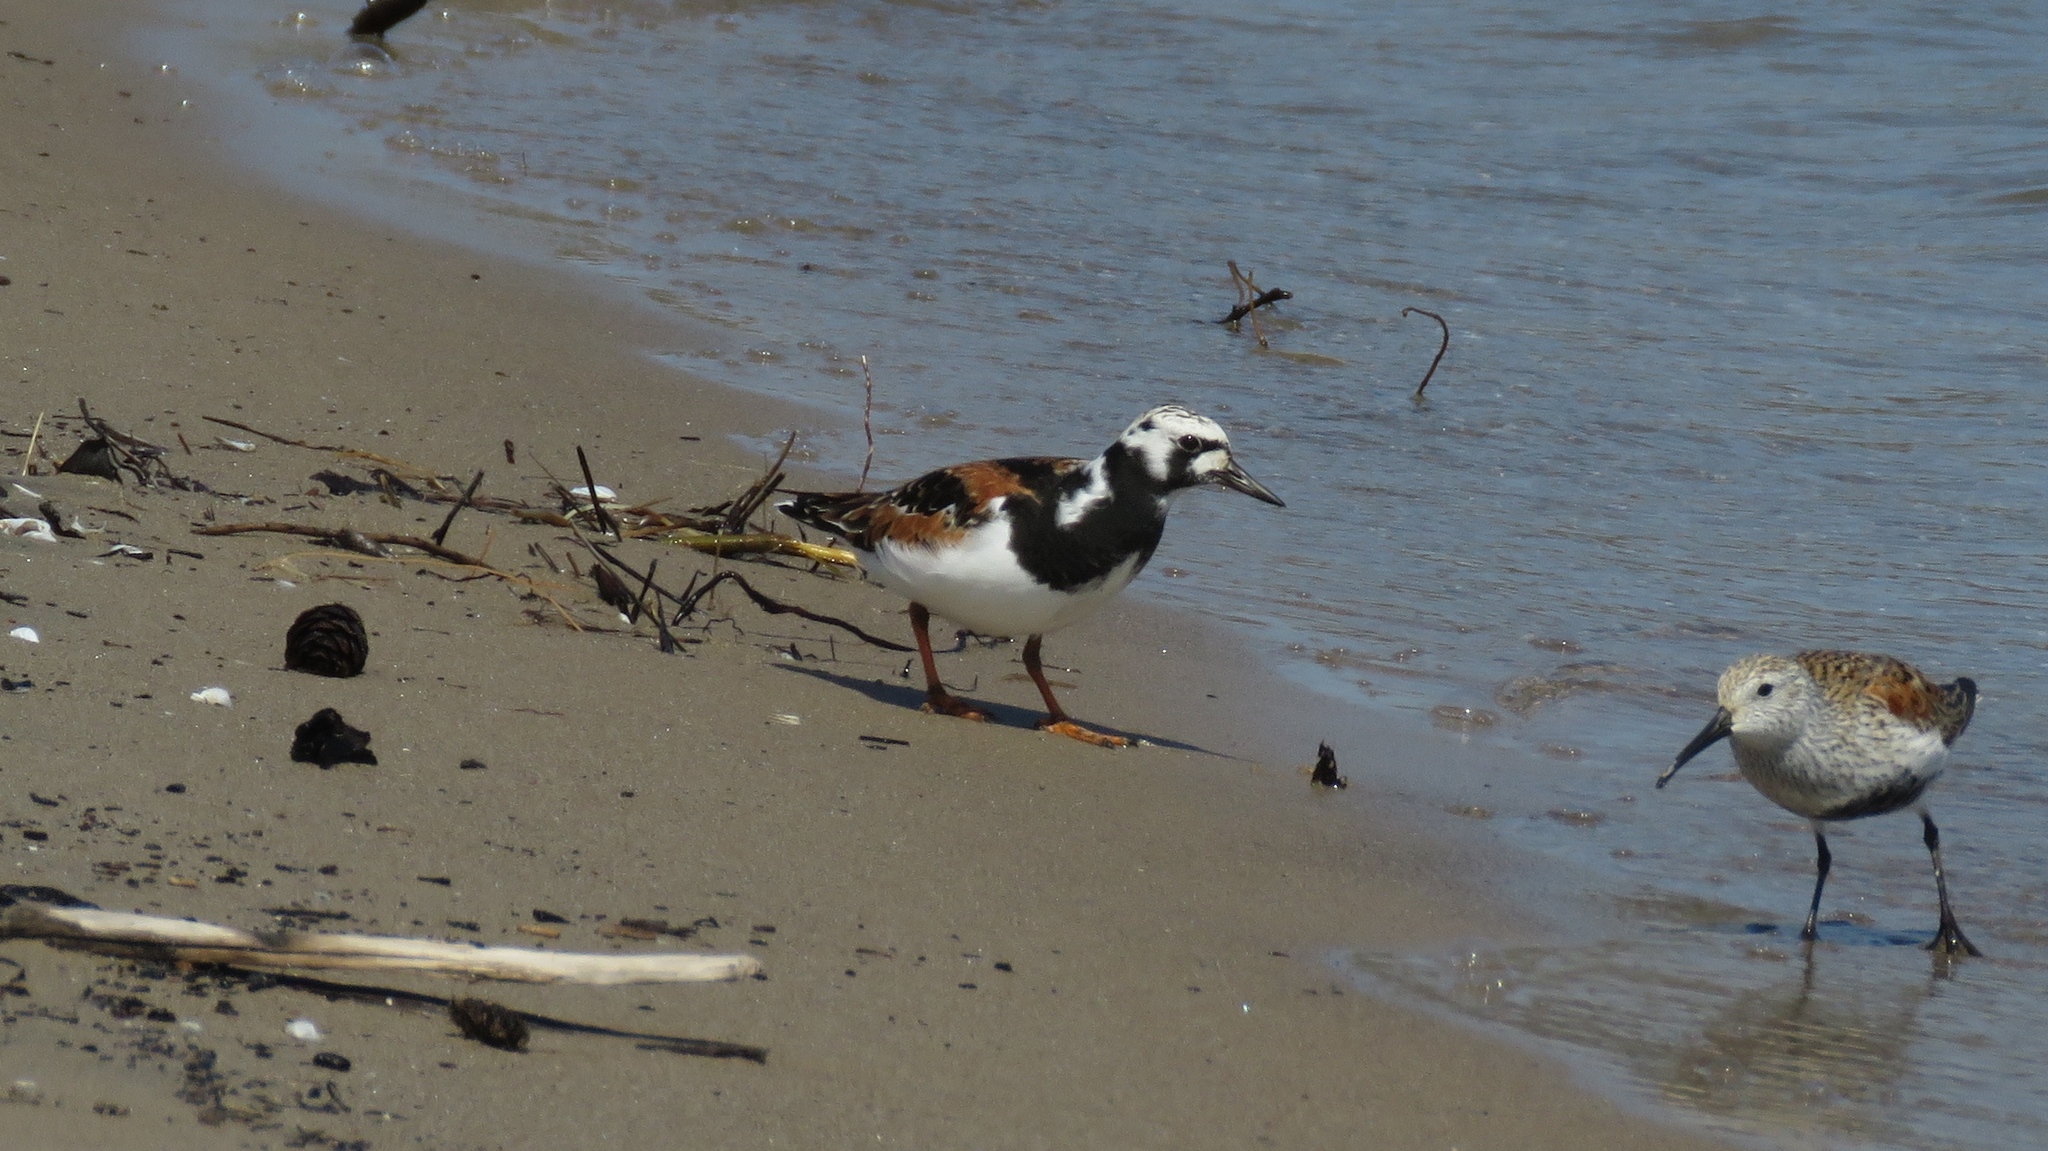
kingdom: Animalia
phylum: Chordata
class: Aves
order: Charadriiformes
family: Scolopacidae
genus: Arenaria
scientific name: Arenaria interpres
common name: Ruddy turnstone
